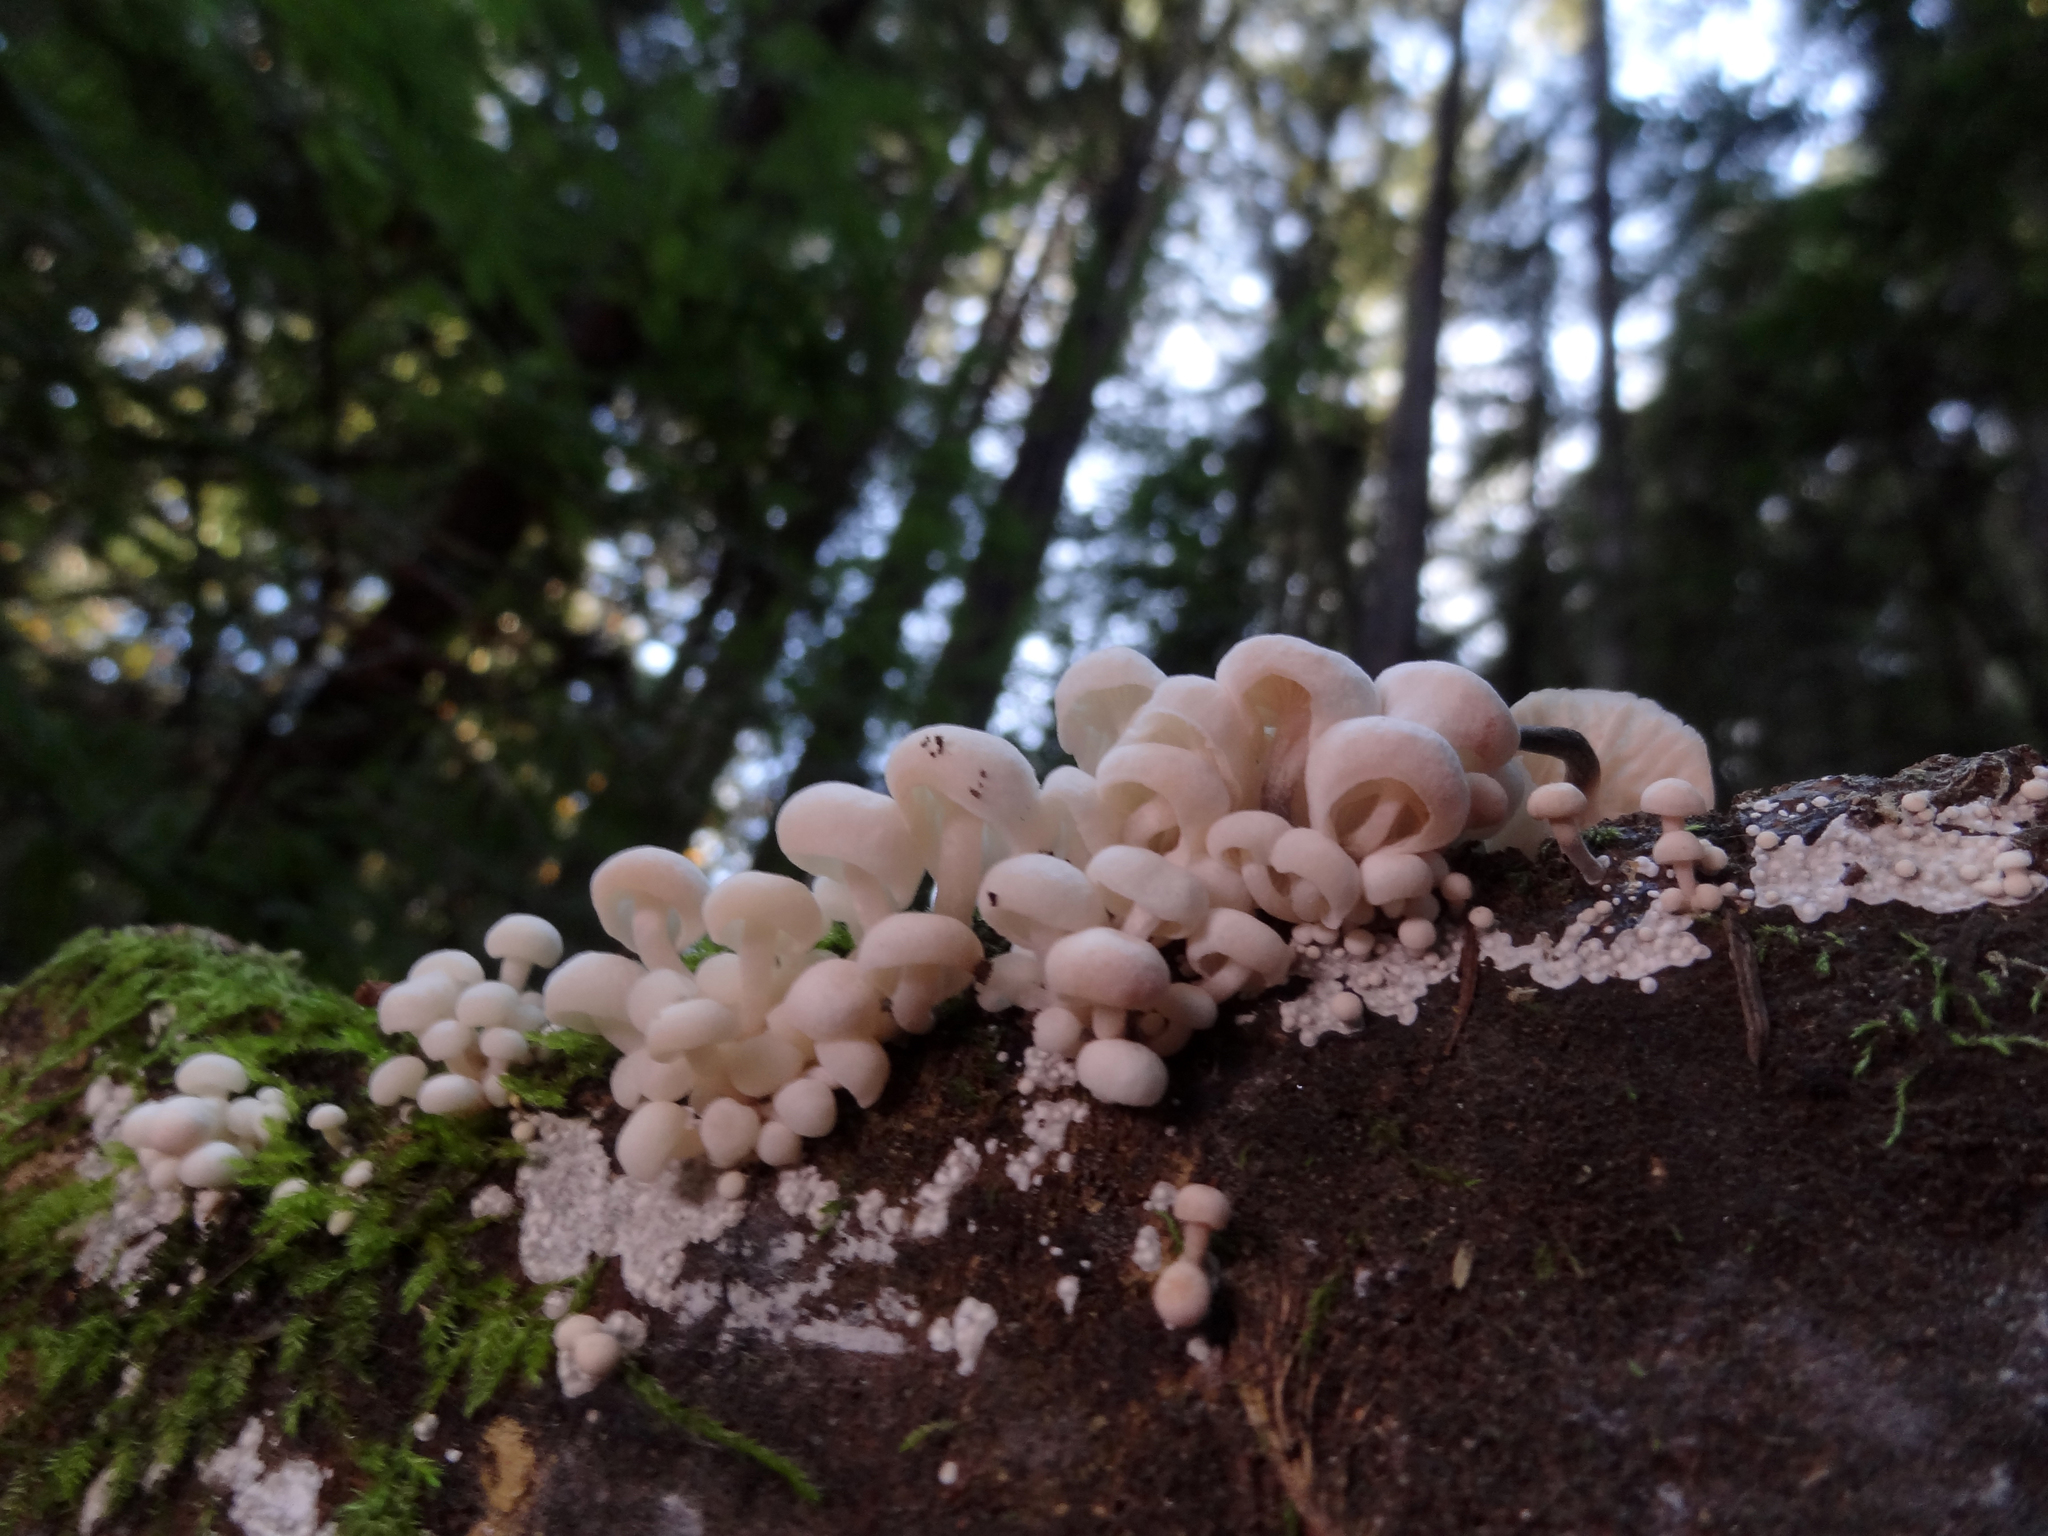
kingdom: Fungi
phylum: Basidiomycota
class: Agaricomycetes
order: Agaricales
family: Omphalotaceae
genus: Marasmiellus
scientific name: Marasmiellus candidus
